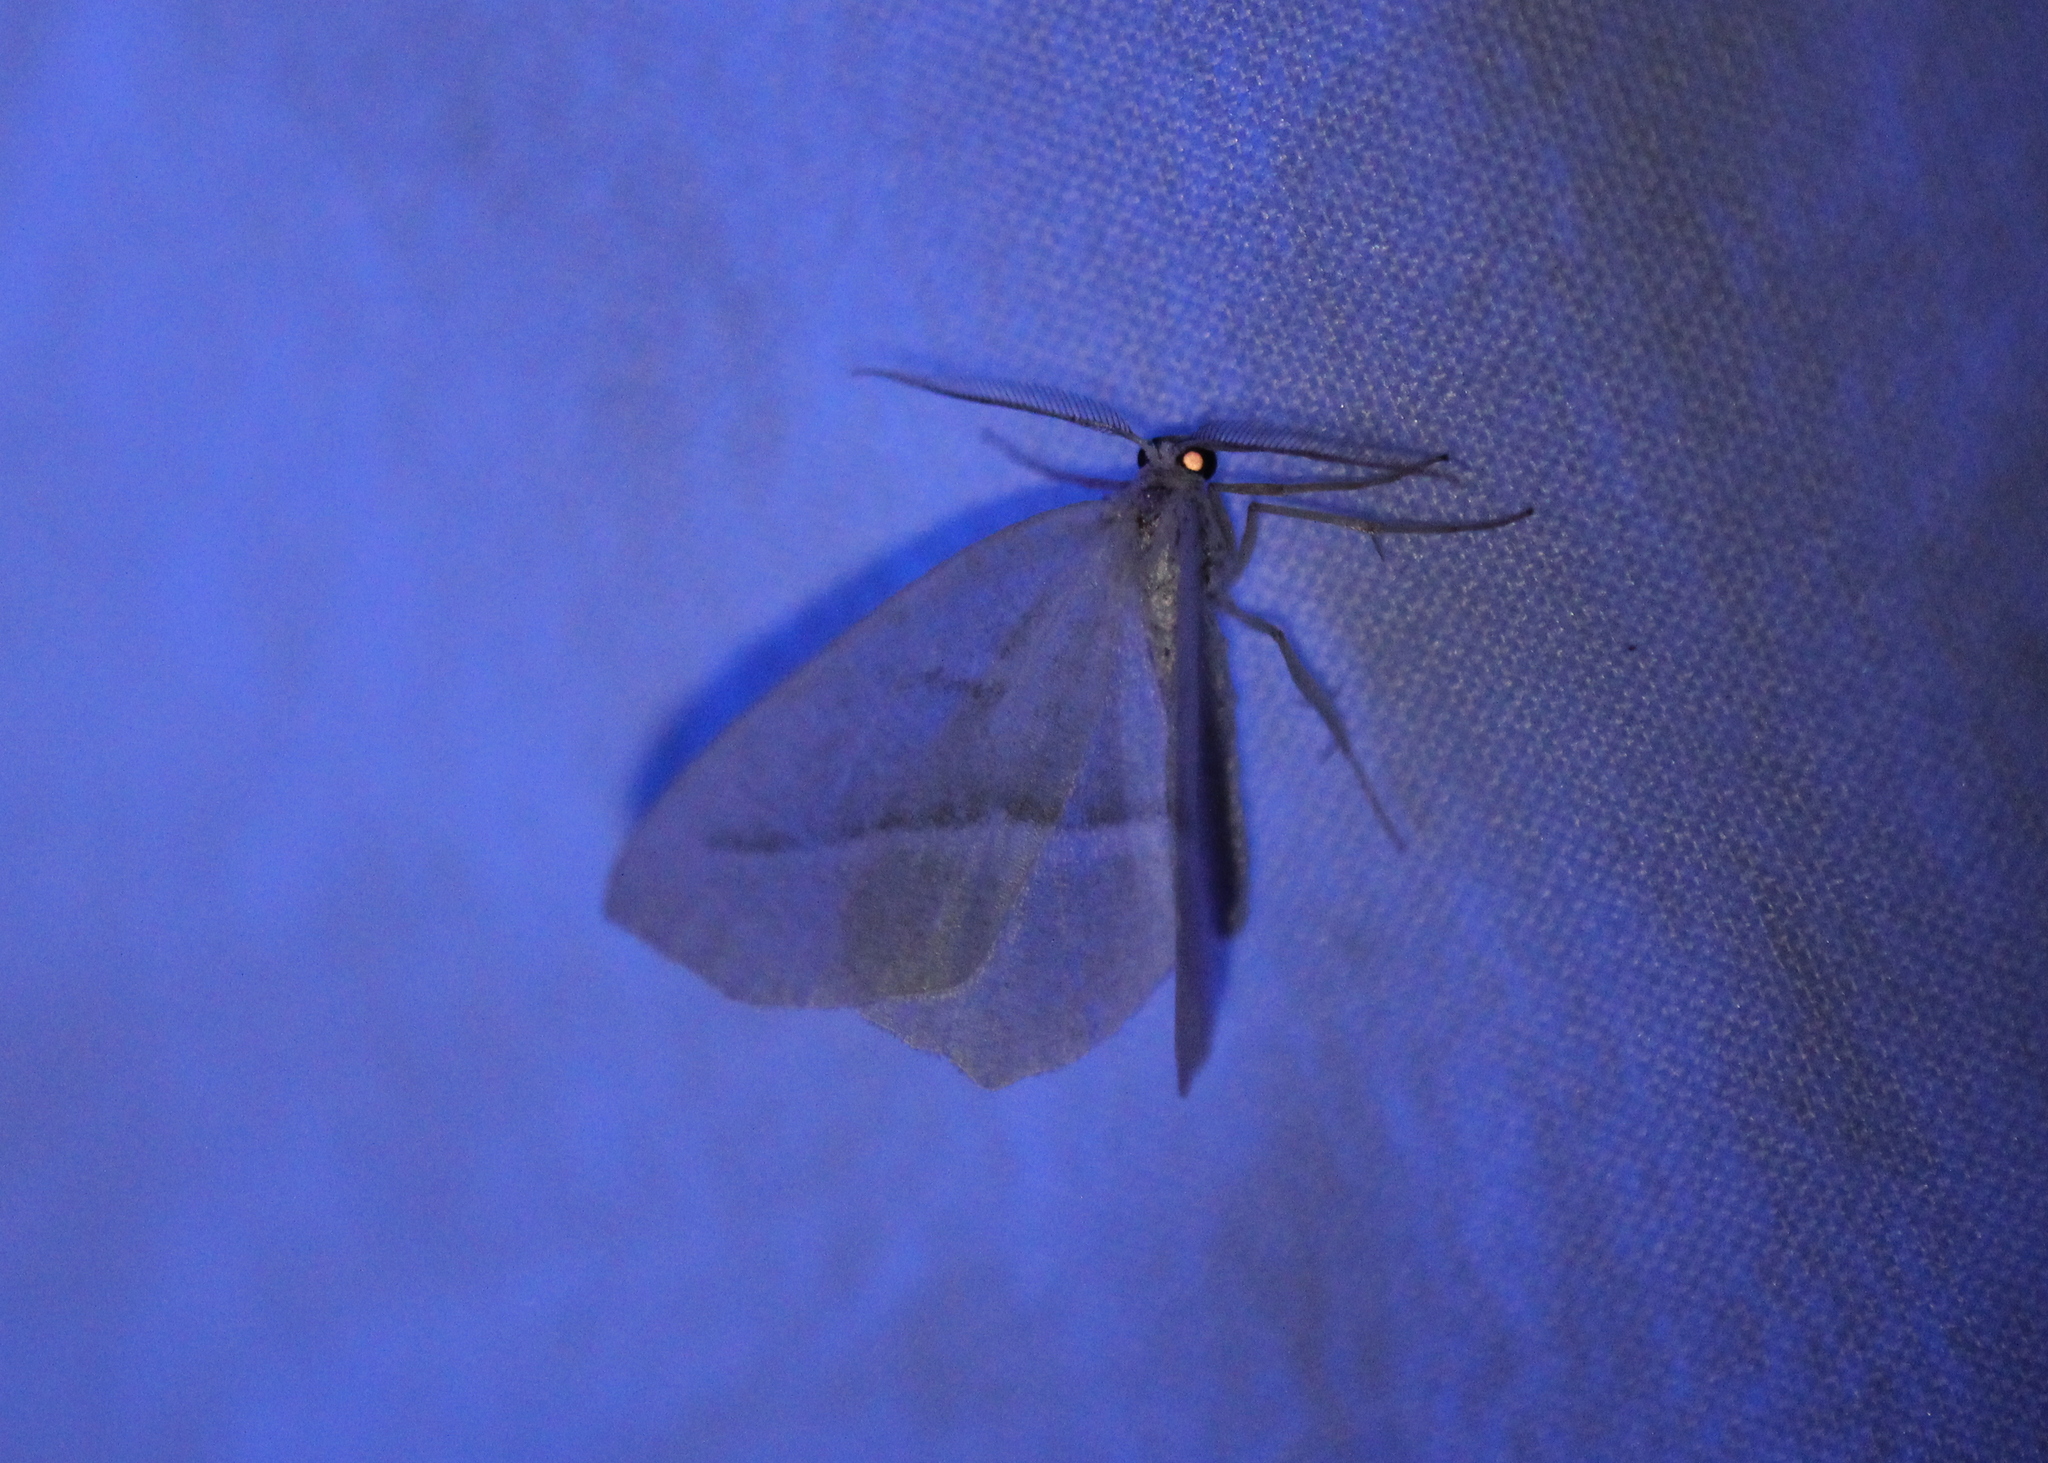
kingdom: Animalia
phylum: Arthropoda
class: Insecta
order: Lepidoptera
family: Geometridae
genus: Campaea
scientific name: Campaea perlata
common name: Fringed looper
